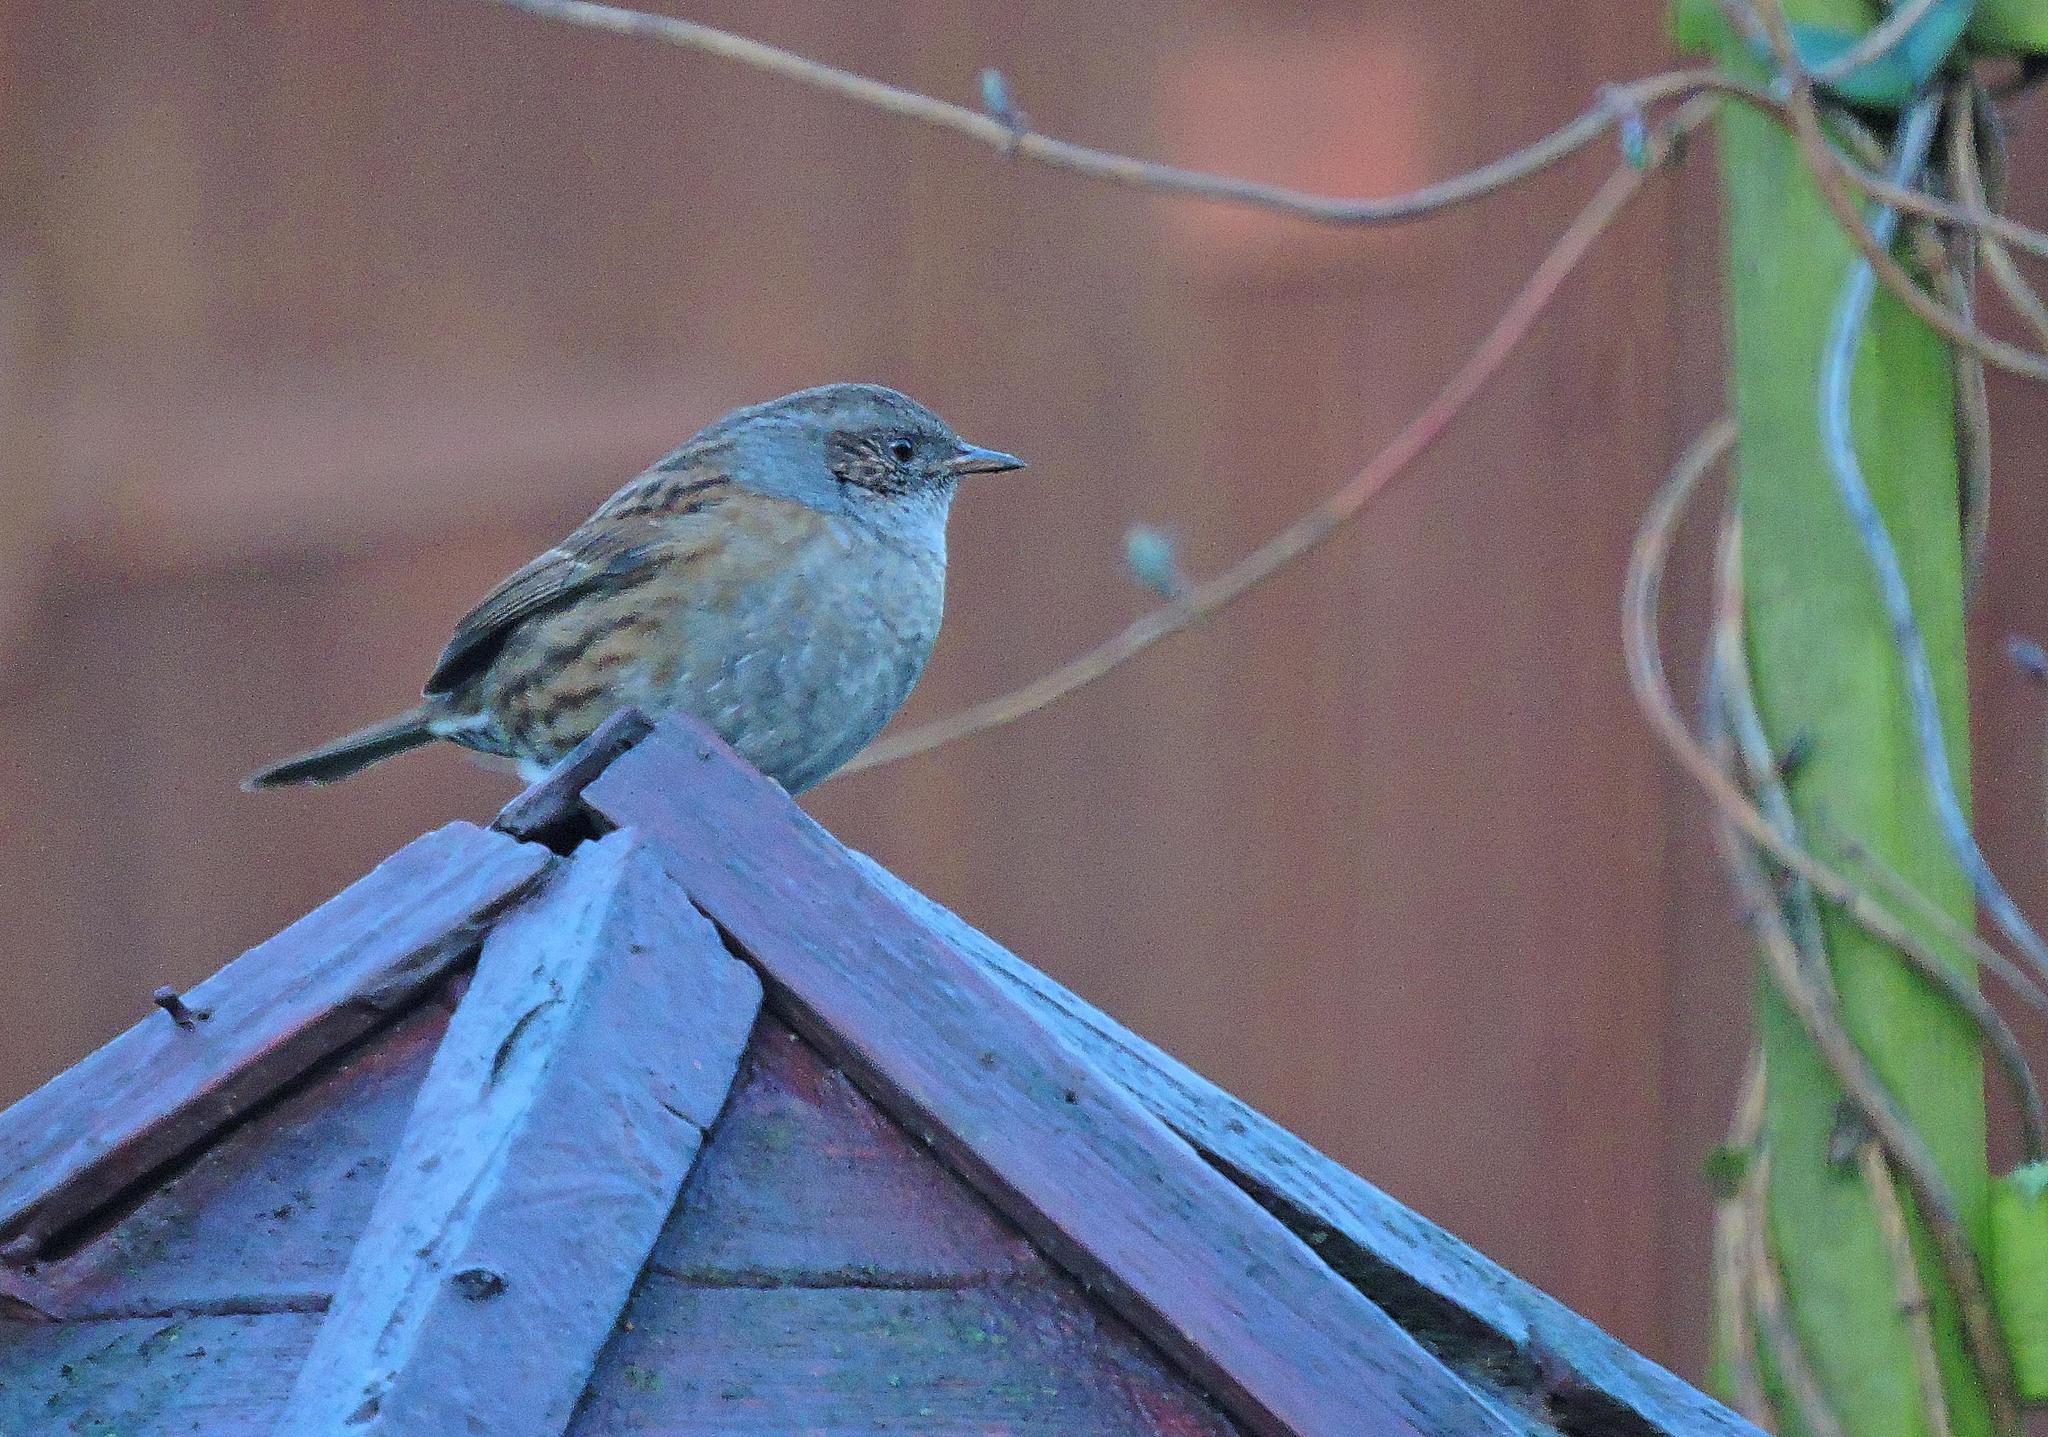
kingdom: Animalia
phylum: Chordata
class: Aves
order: Passeriformes
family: Prunellidae
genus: Prunella
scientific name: Prunella modularis
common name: Dunnock
